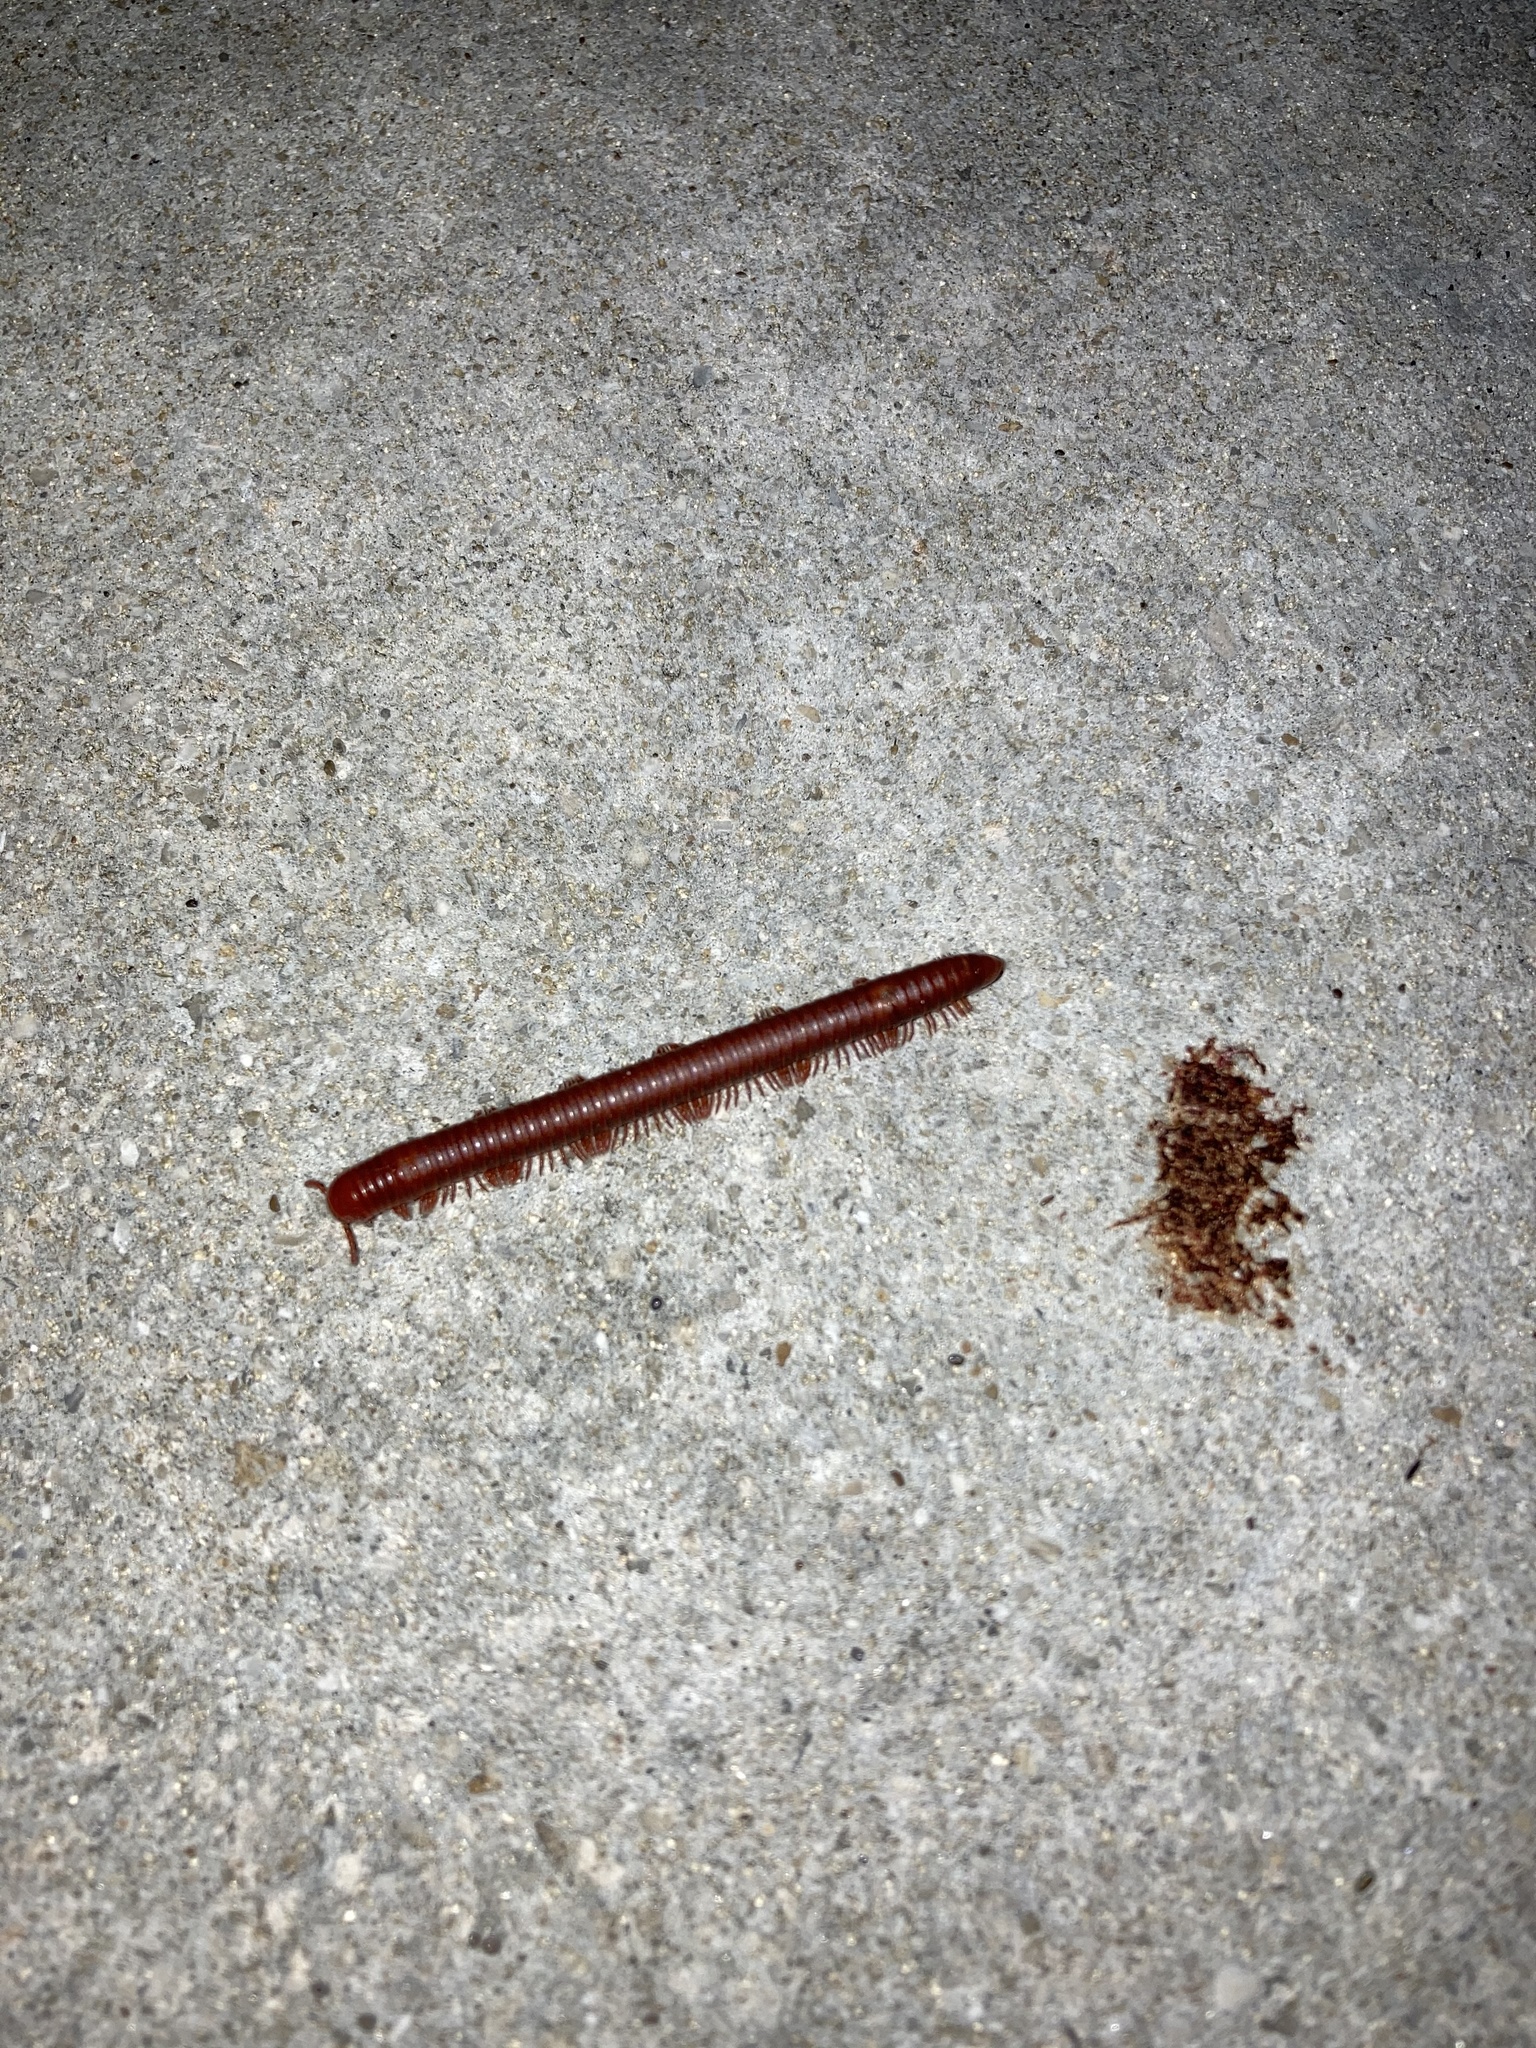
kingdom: Animalia
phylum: Arthropoda
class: Diplopoda
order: Spirobolida
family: Pachybolidae
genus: Trigoniulus
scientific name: Trigoniulus corallinus
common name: Millipede
